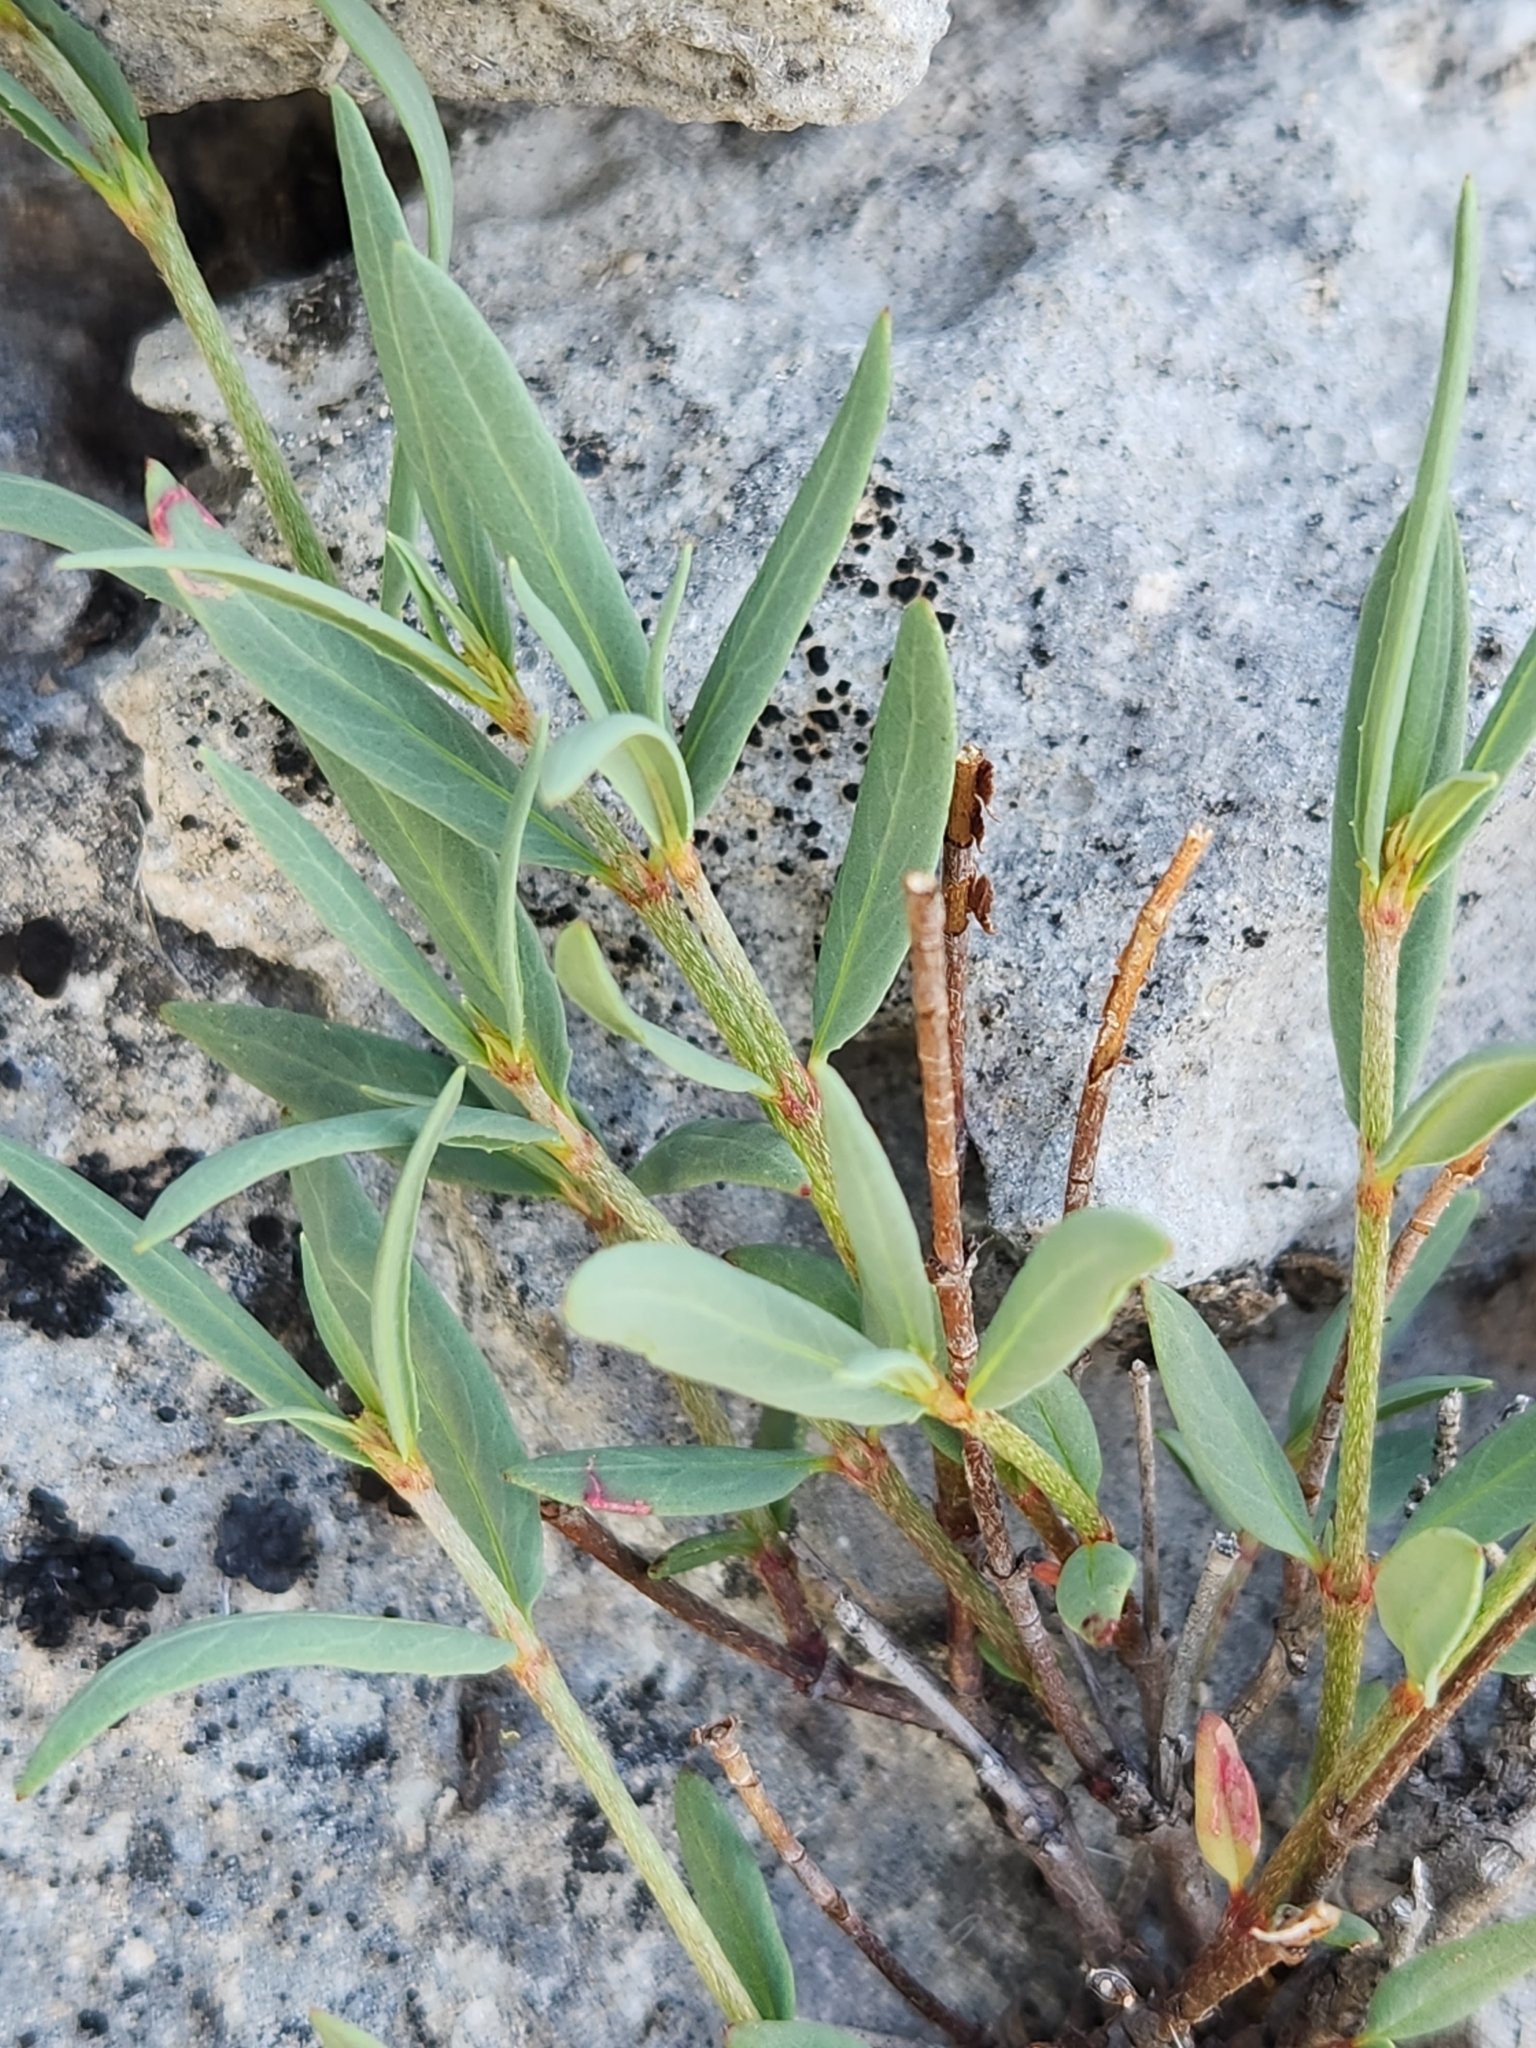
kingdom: Plantae
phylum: Tracheophyta
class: Magnoliopsida
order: Malpighiales
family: Malpighiaceae
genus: Galphimia
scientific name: Galphimia angustifolia
